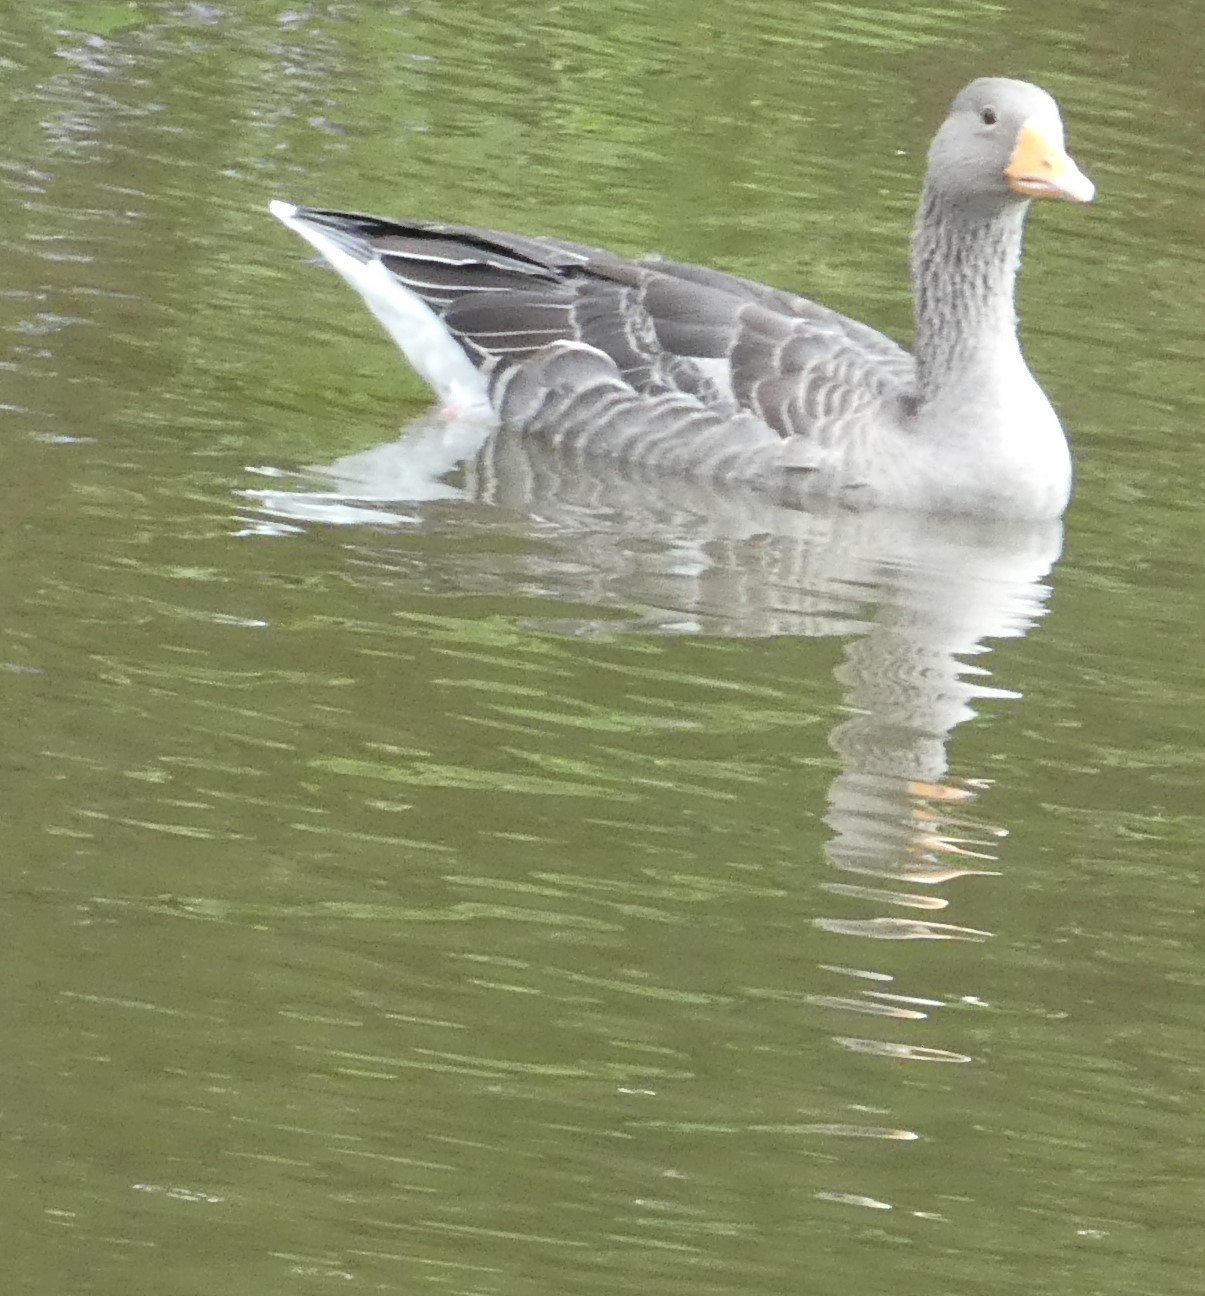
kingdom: Animalia
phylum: Chordata
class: Aves
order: Anseriformes
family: Anatidae
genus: Anser
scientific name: Anser anser
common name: Greylag goose
